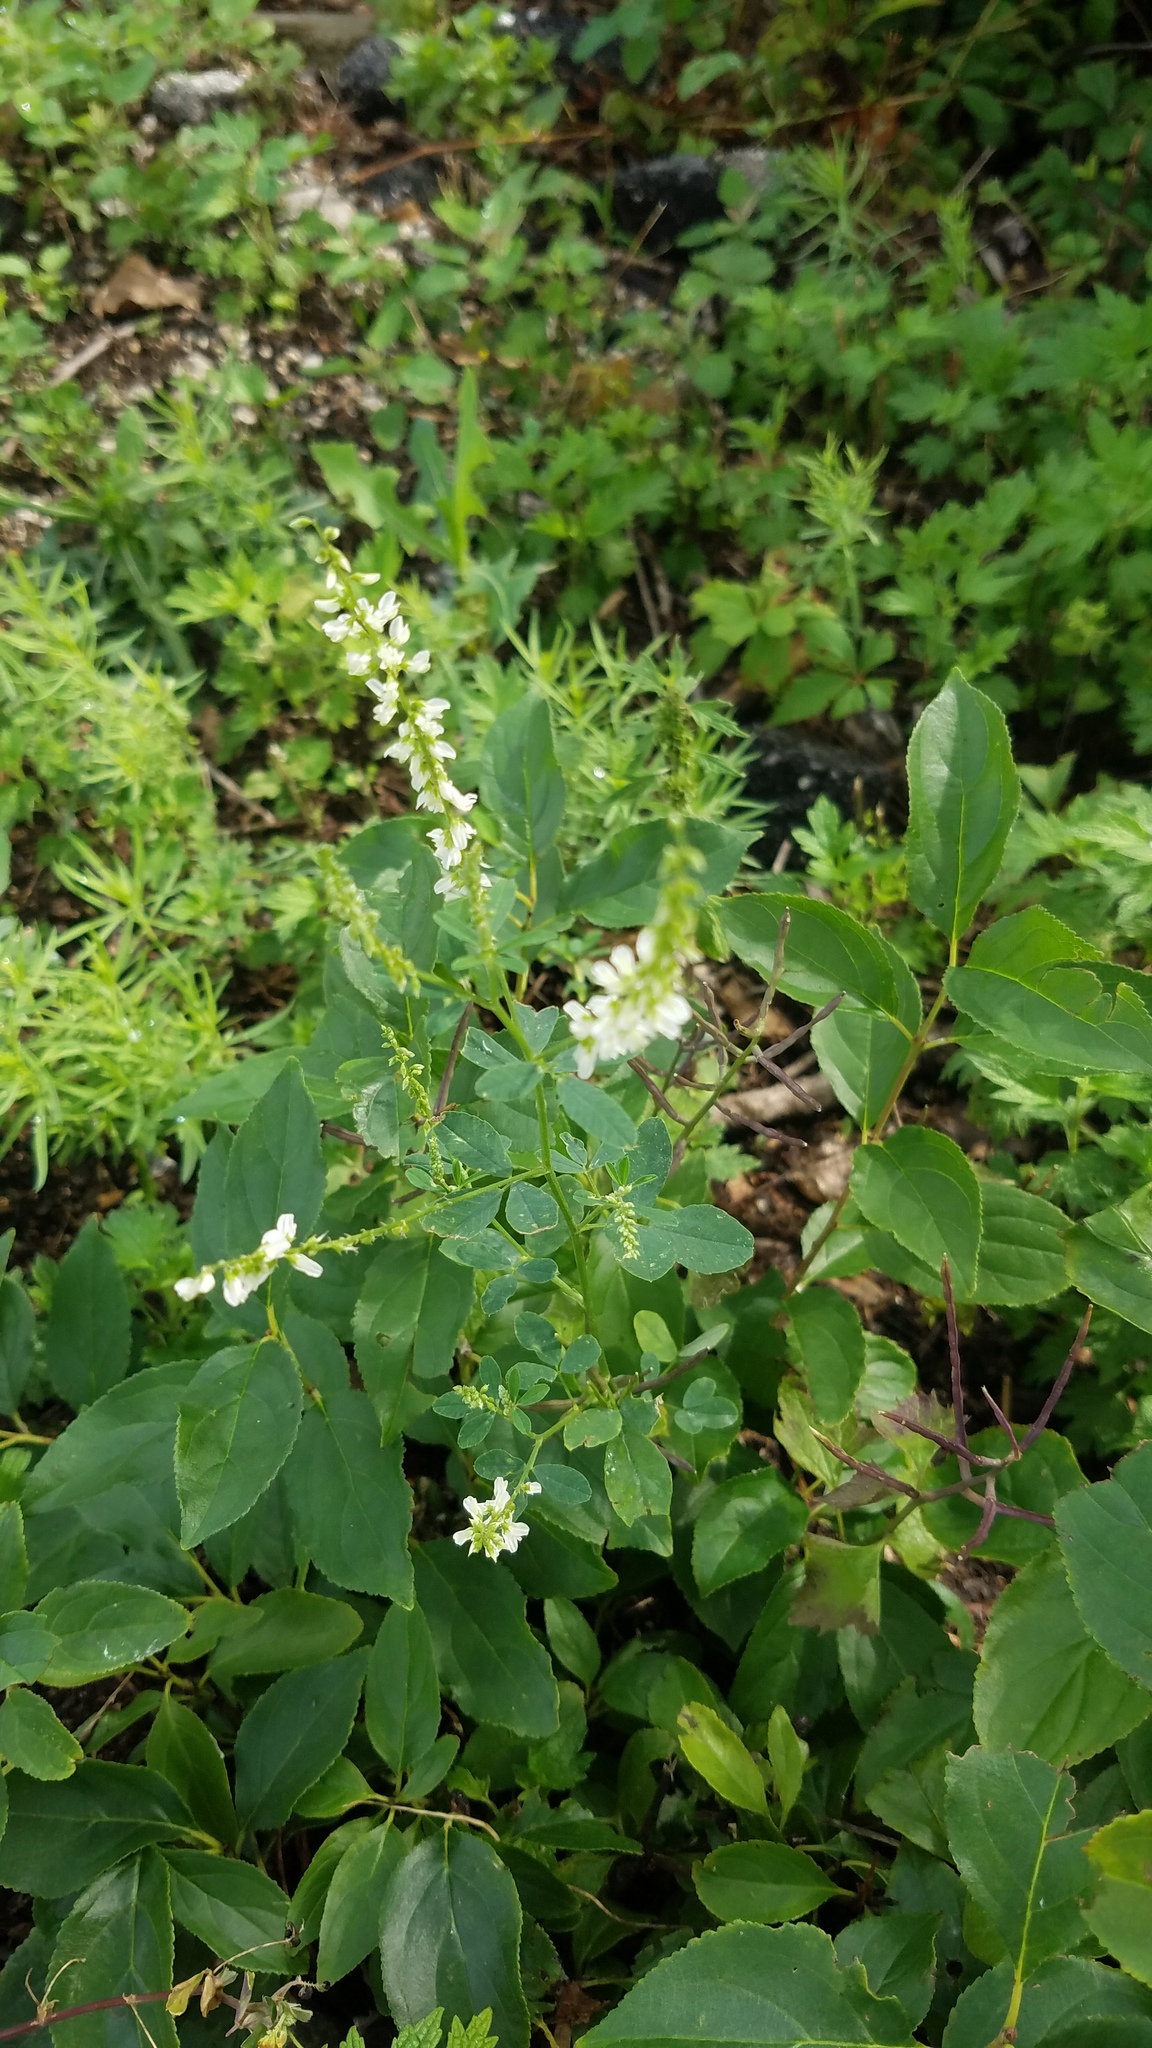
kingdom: Plantae
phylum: Tracheophyta
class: Magnoliopsida
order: Fabales
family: Fabaceae
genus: Melilotus
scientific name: Melilotus albus
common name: White melilot
